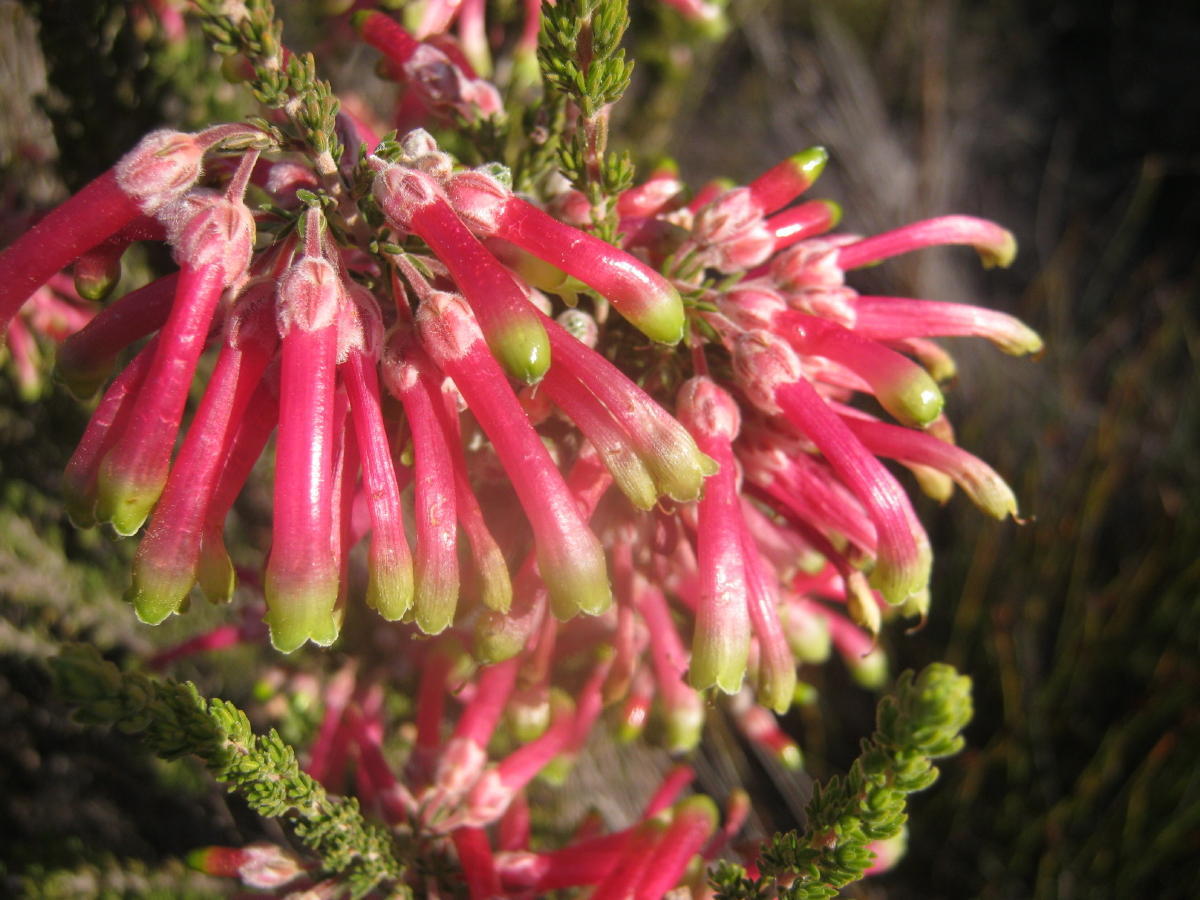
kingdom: Plantae
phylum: Tracheophyta
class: Magnoliopsida
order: Ericales
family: Ericaceae
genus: Erica
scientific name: Erica discolor
